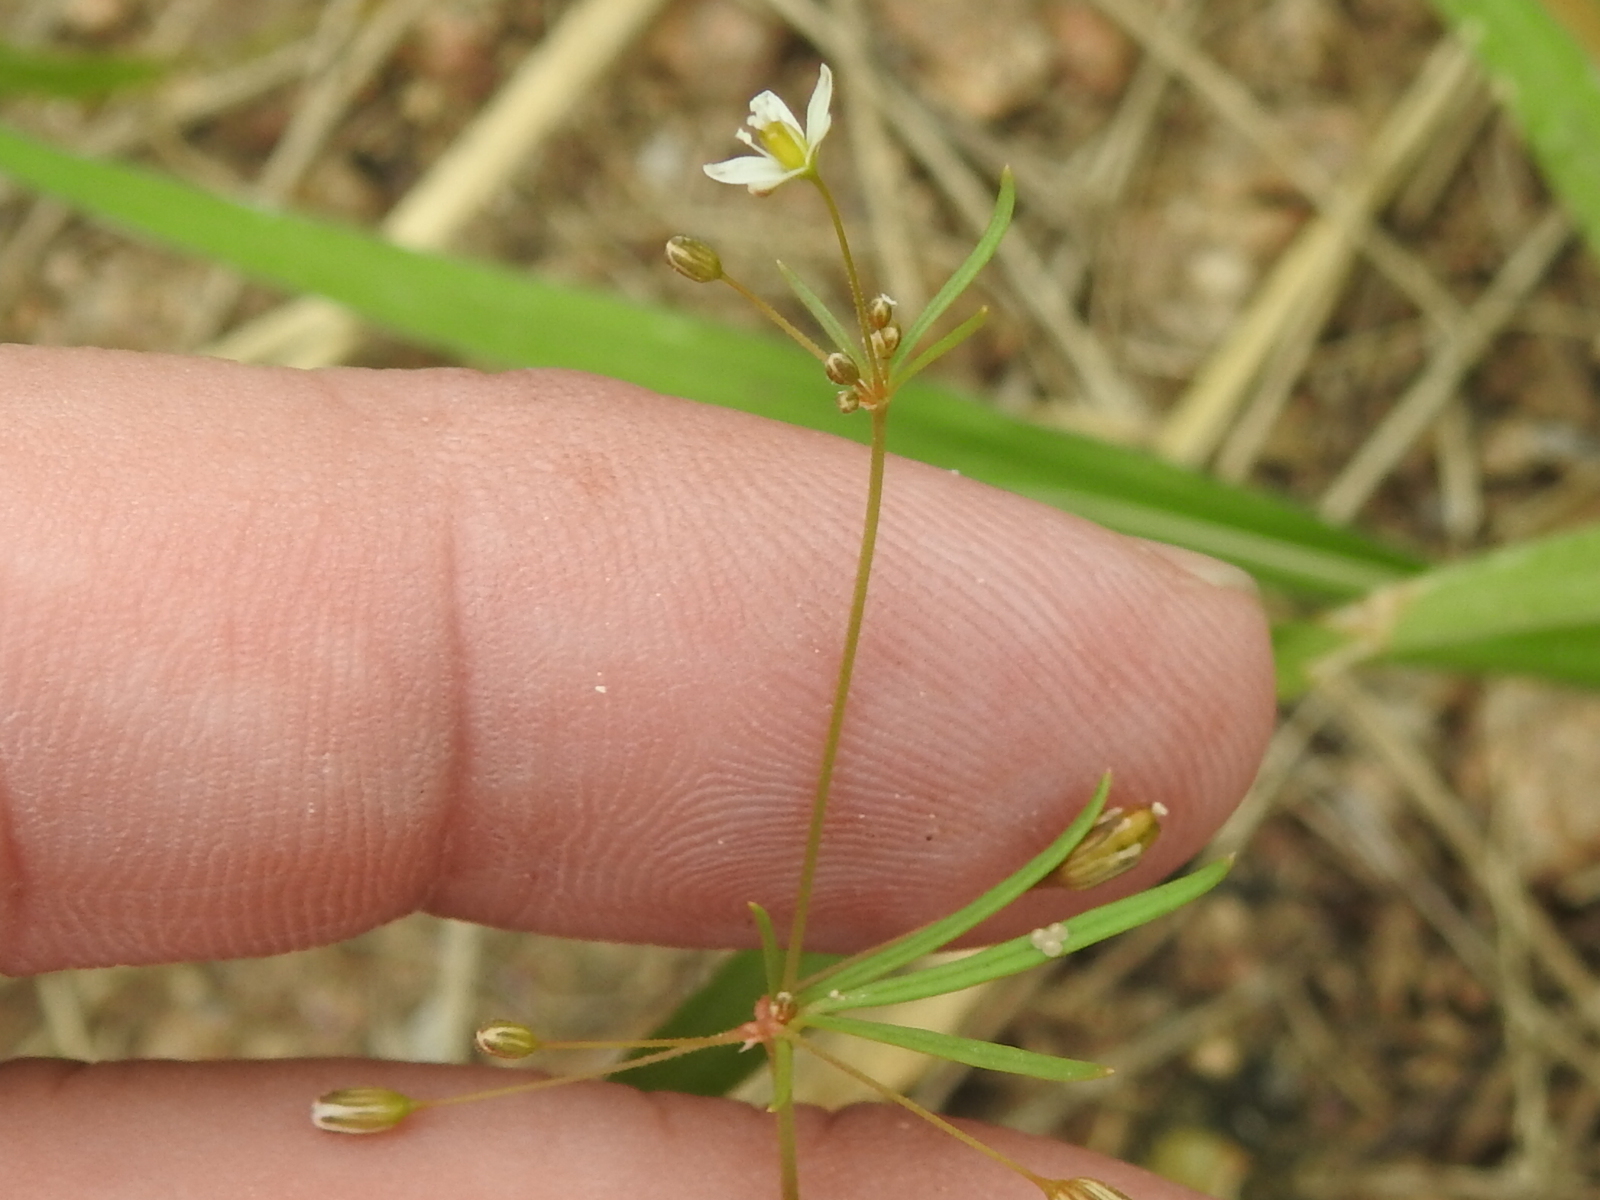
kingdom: Plantae
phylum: Tracheophyta
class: Magnoliopsida
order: Caryophyllales
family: Molluginaceae
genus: Mollugo
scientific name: Mollugo verticillata
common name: Green carpetweed
